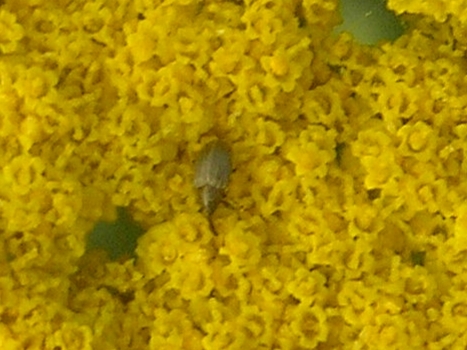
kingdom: Animalia
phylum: Arthropoda
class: Insecta
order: Coleoptera
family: Curculionidae
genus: Acalyptus
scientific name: Acalyptus carpini
